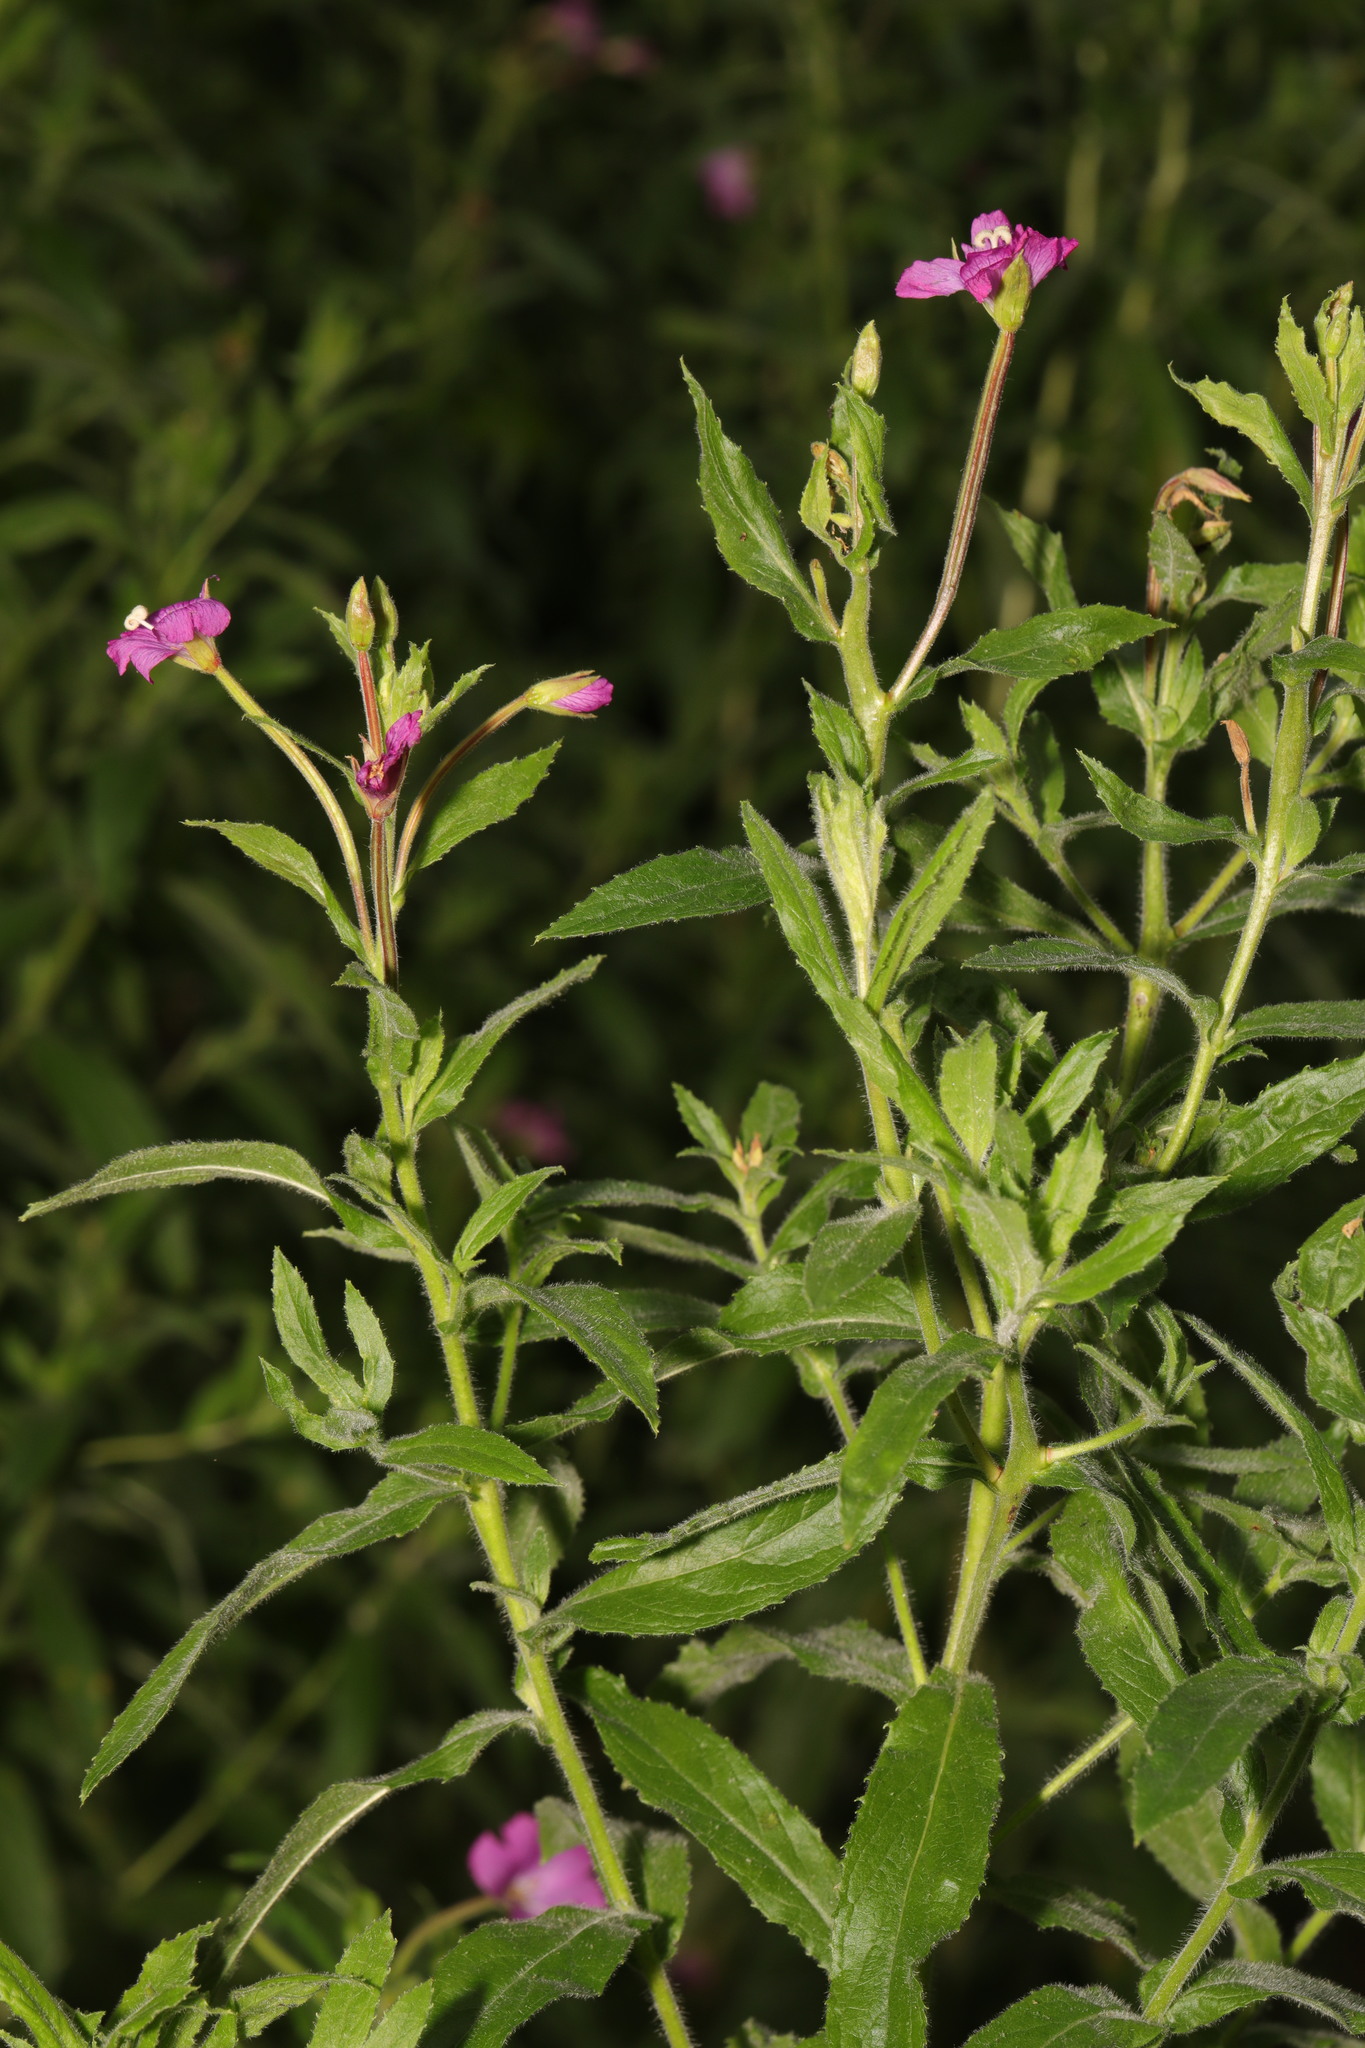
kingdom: Plantae
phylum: Tracheophyta
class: Magnoliopsida
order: Myrtales
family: Onagraceae
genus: Epilobium
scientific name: Epilobium hirsutum
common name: Great willowherb
